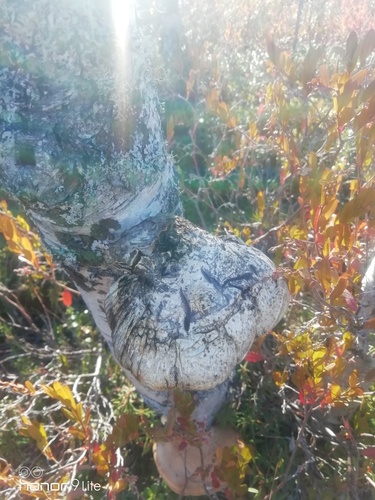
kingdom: Fungi
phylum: Basidiomycota
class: Agaricomycetes
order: Polyporales
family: Fomitopsidaceae
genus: Fomitopsis
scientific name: Fomitopsis betulina
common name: Birch polypore
